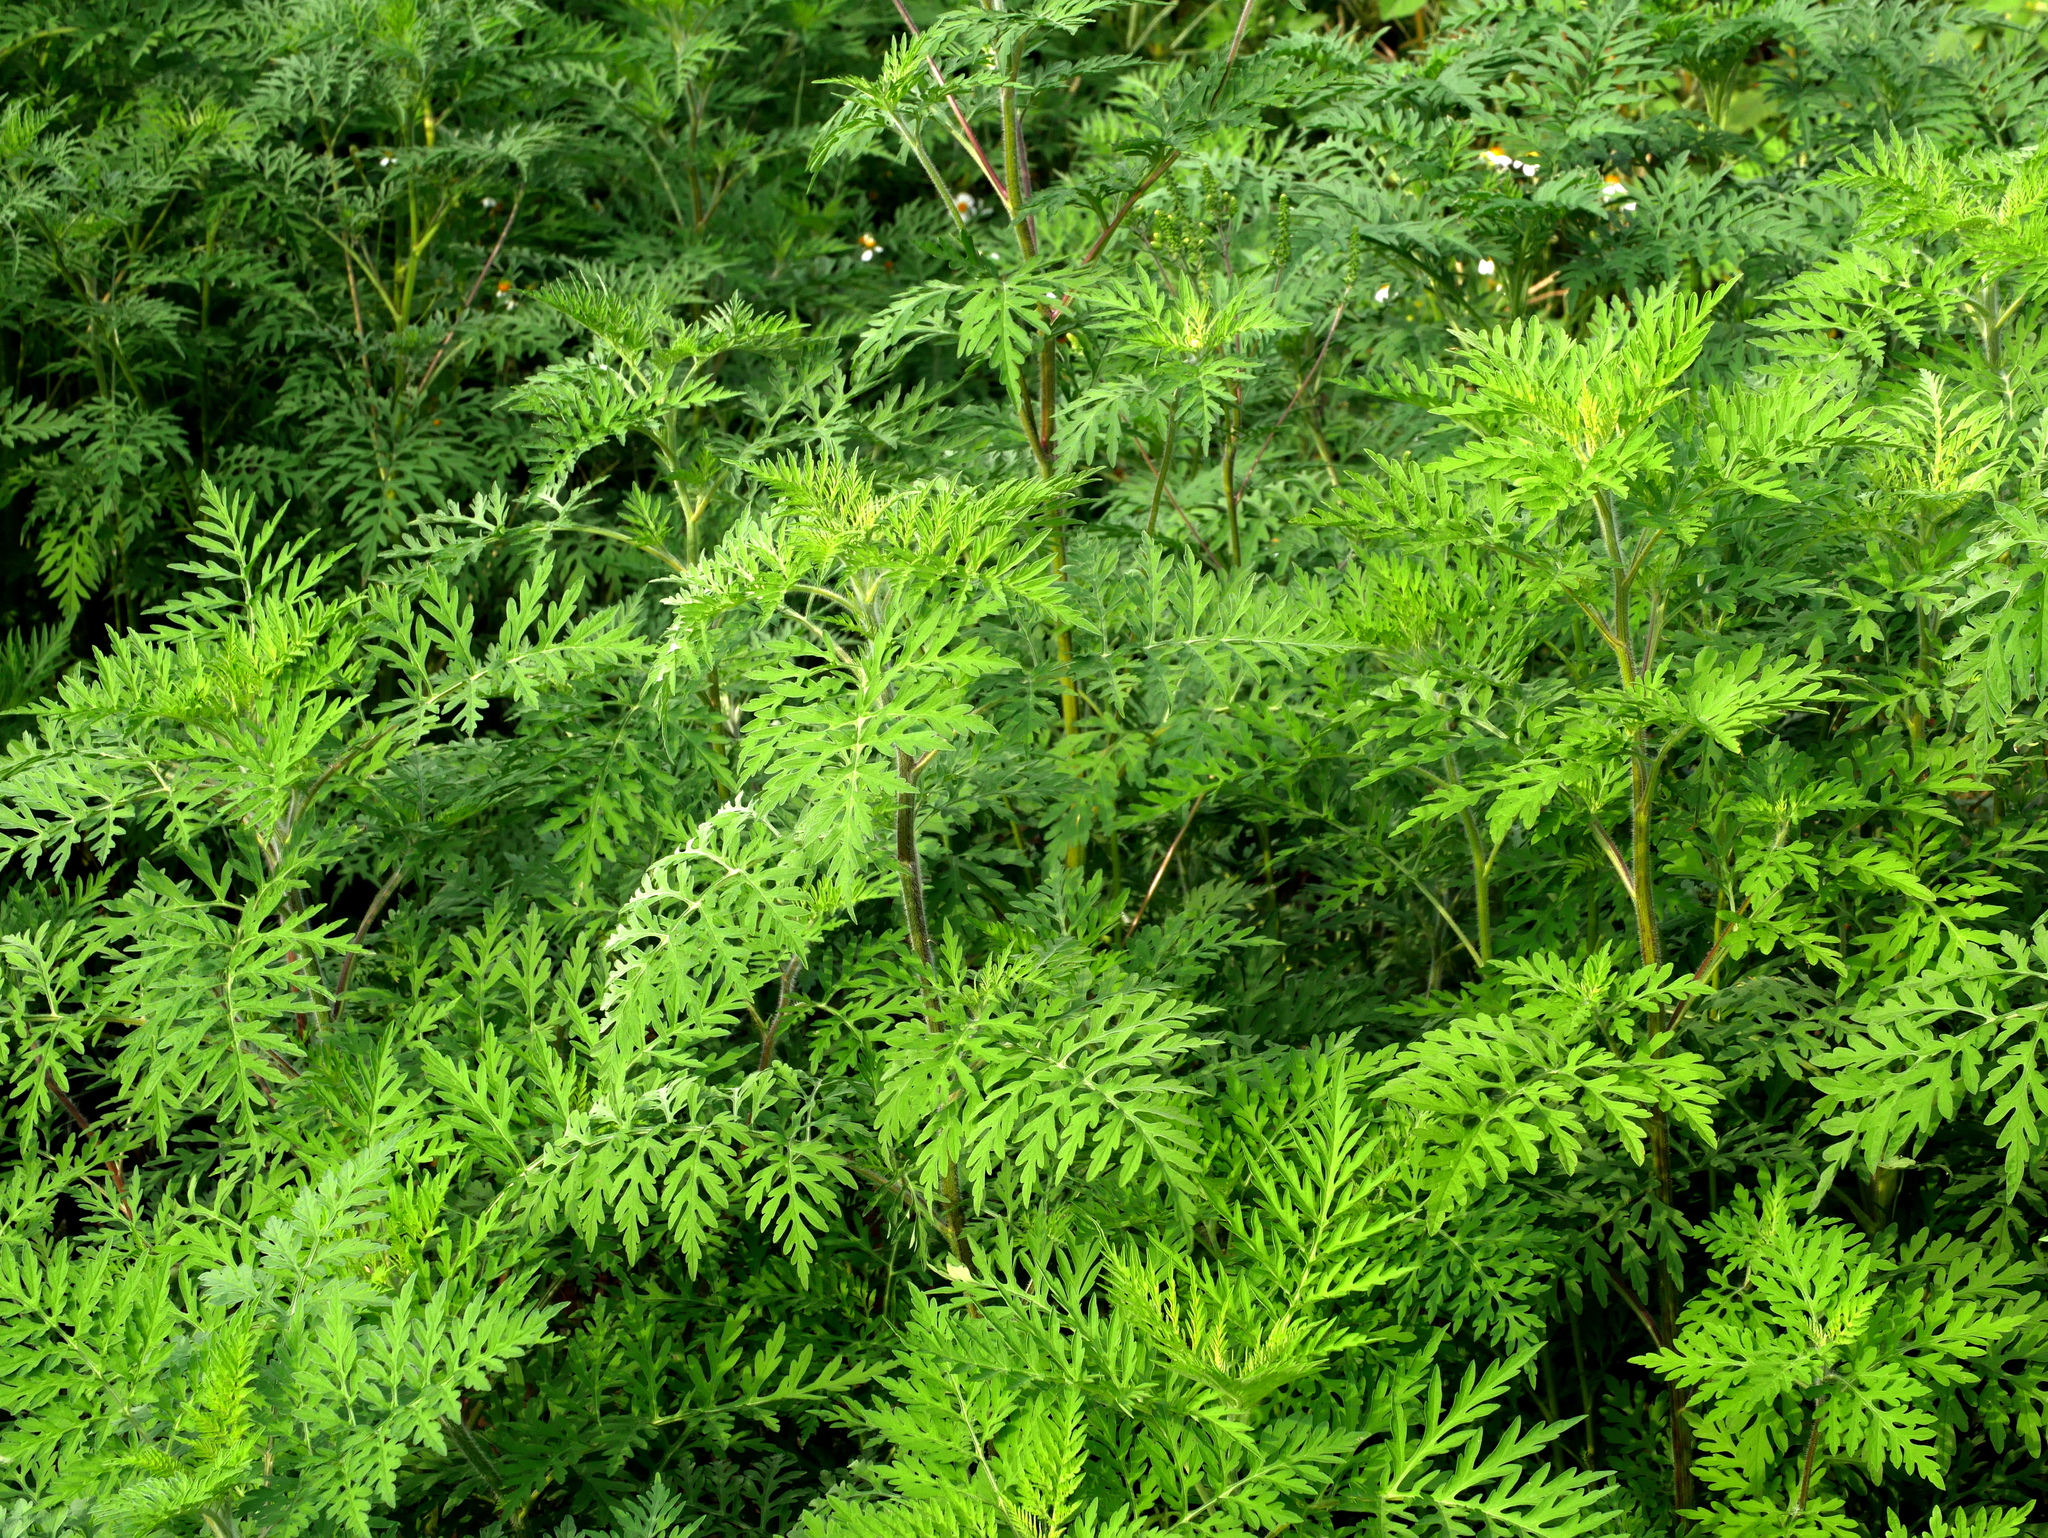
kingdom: Plantae
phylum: Tracheophyta
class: Magnoliopsida
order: Asterales
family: Asteraceae
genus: Ambrosia
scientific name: Ambrosia artemisiifolia
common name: Annual ragweed
